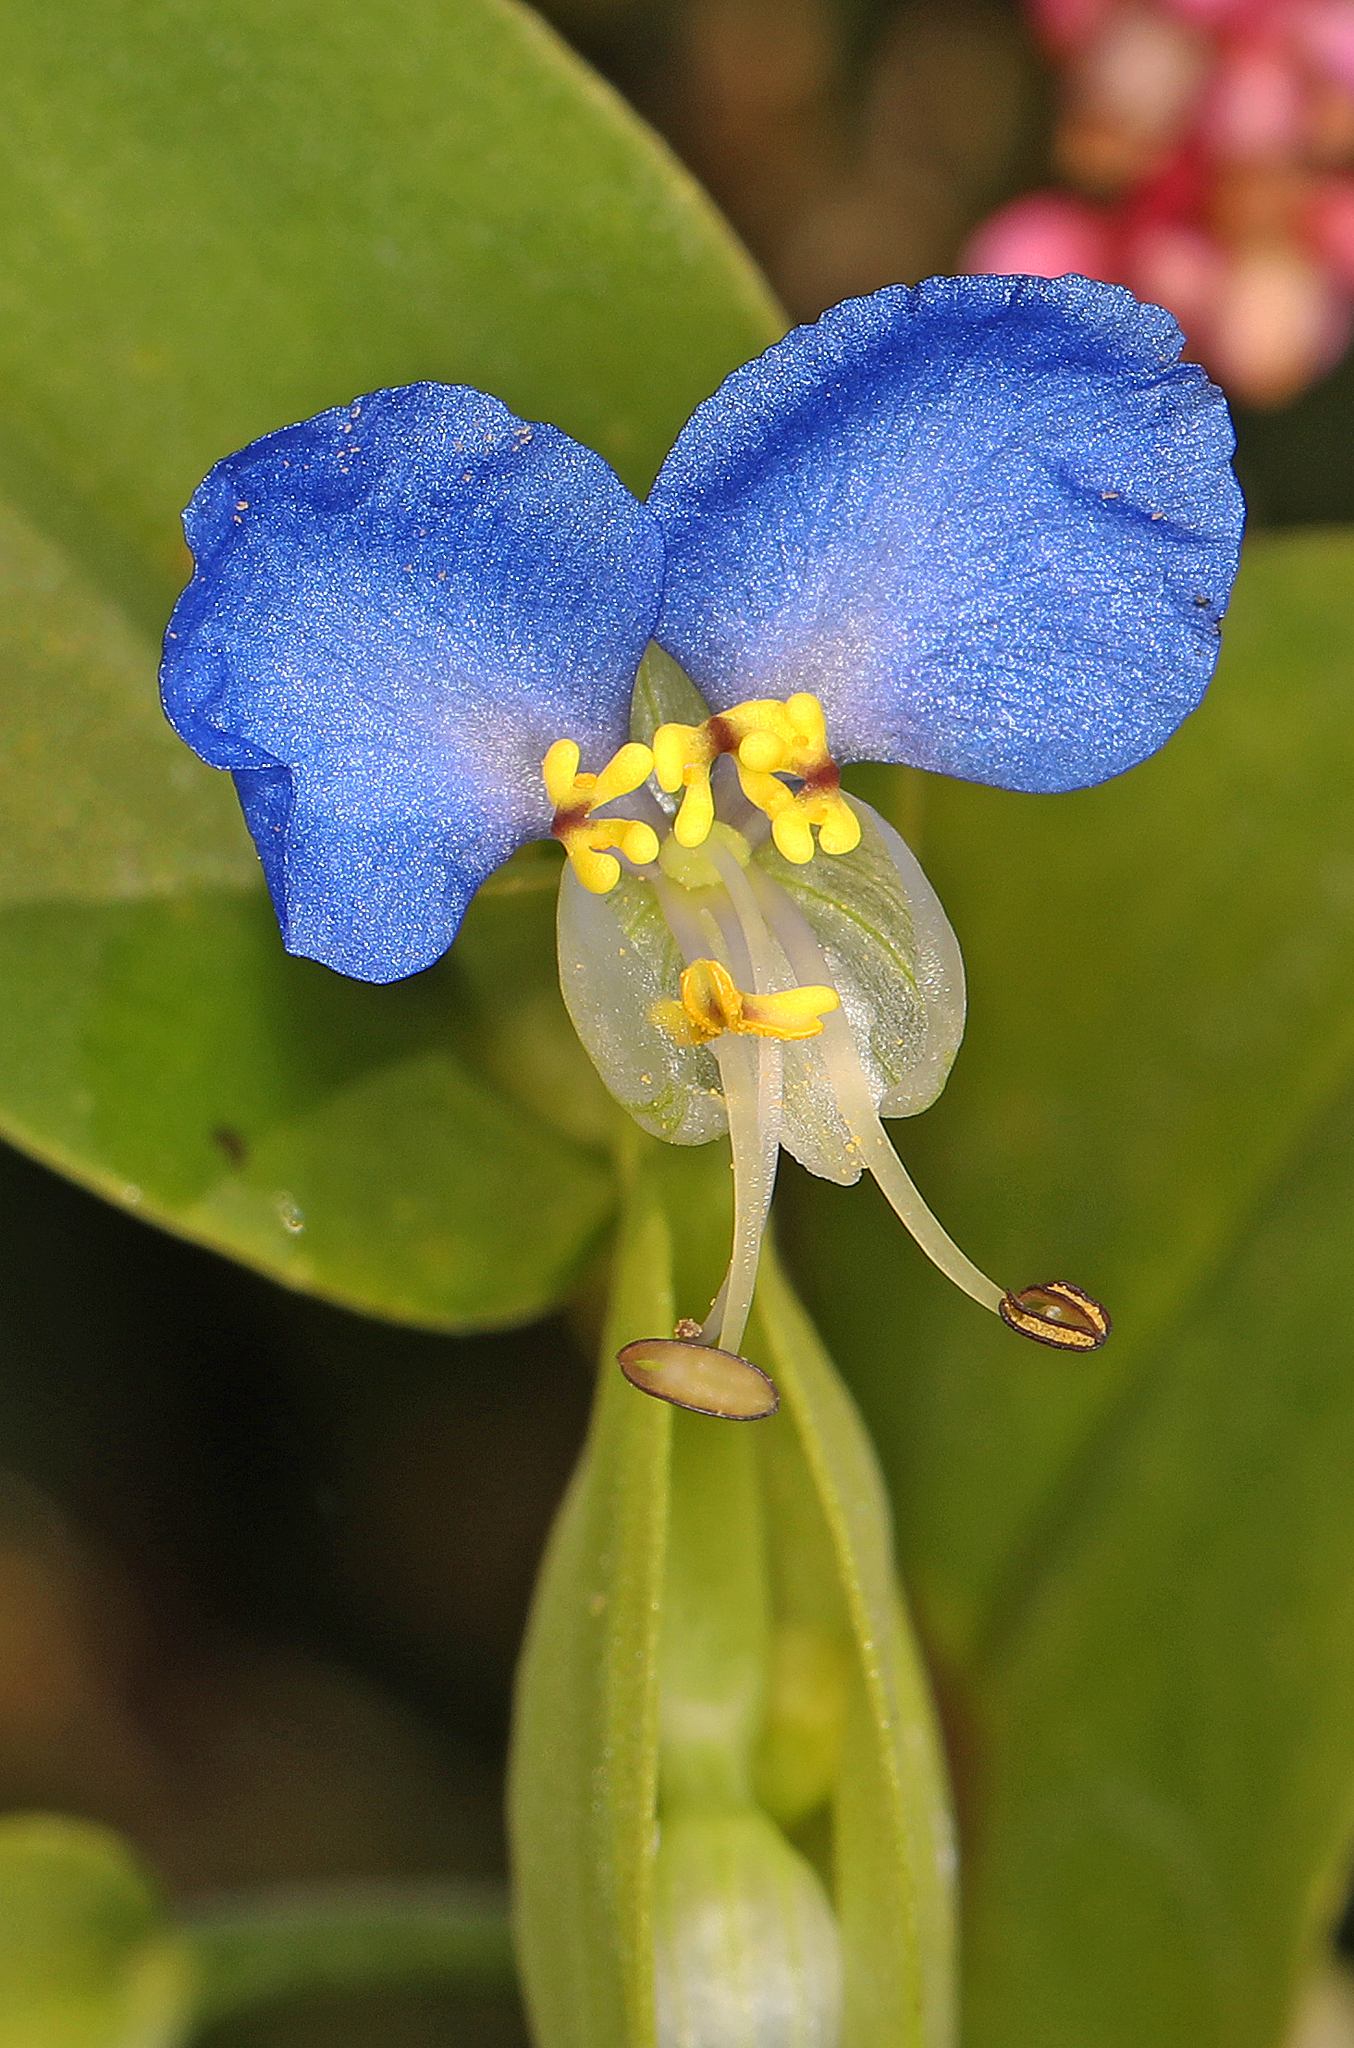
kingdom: Plantae
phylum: Tracheophyta
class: Liliopsida
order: Commelinales
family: Commelinaceae
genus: Commelina
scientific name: Commelina communis
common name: Asiatic dayflower
